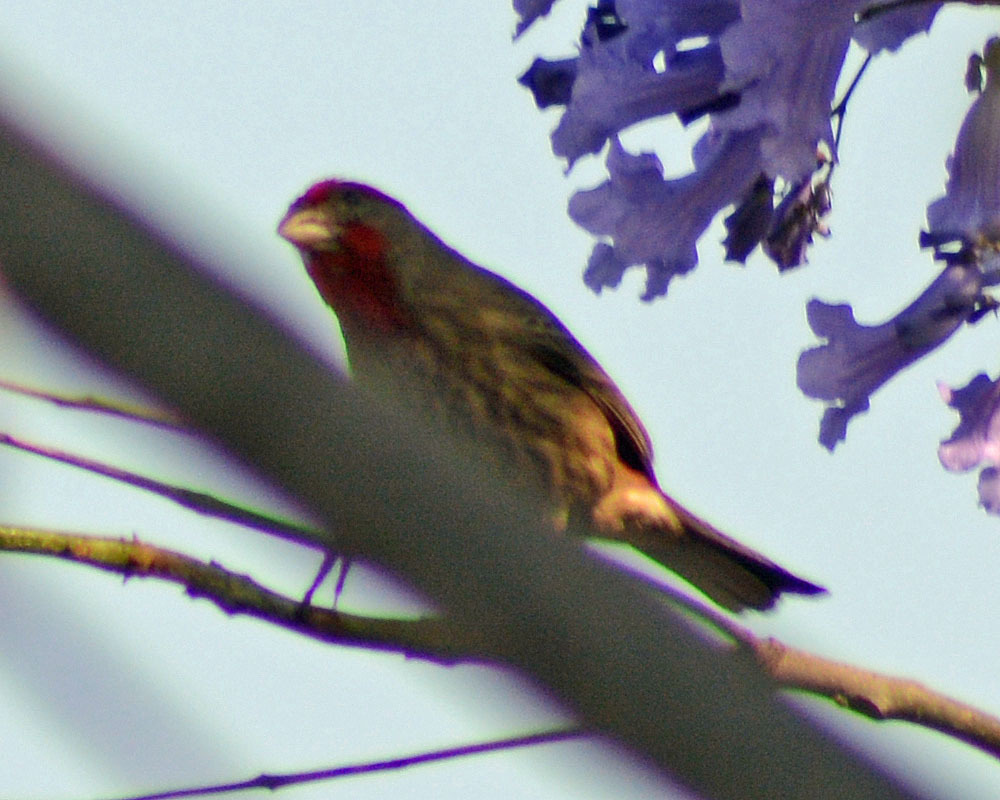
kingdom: Animalia
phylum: Chordata
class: Aves
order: Passeriformes
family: Fringillidae
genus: Haemorhous
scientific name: Haemorhous mexicanus
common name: House finch
